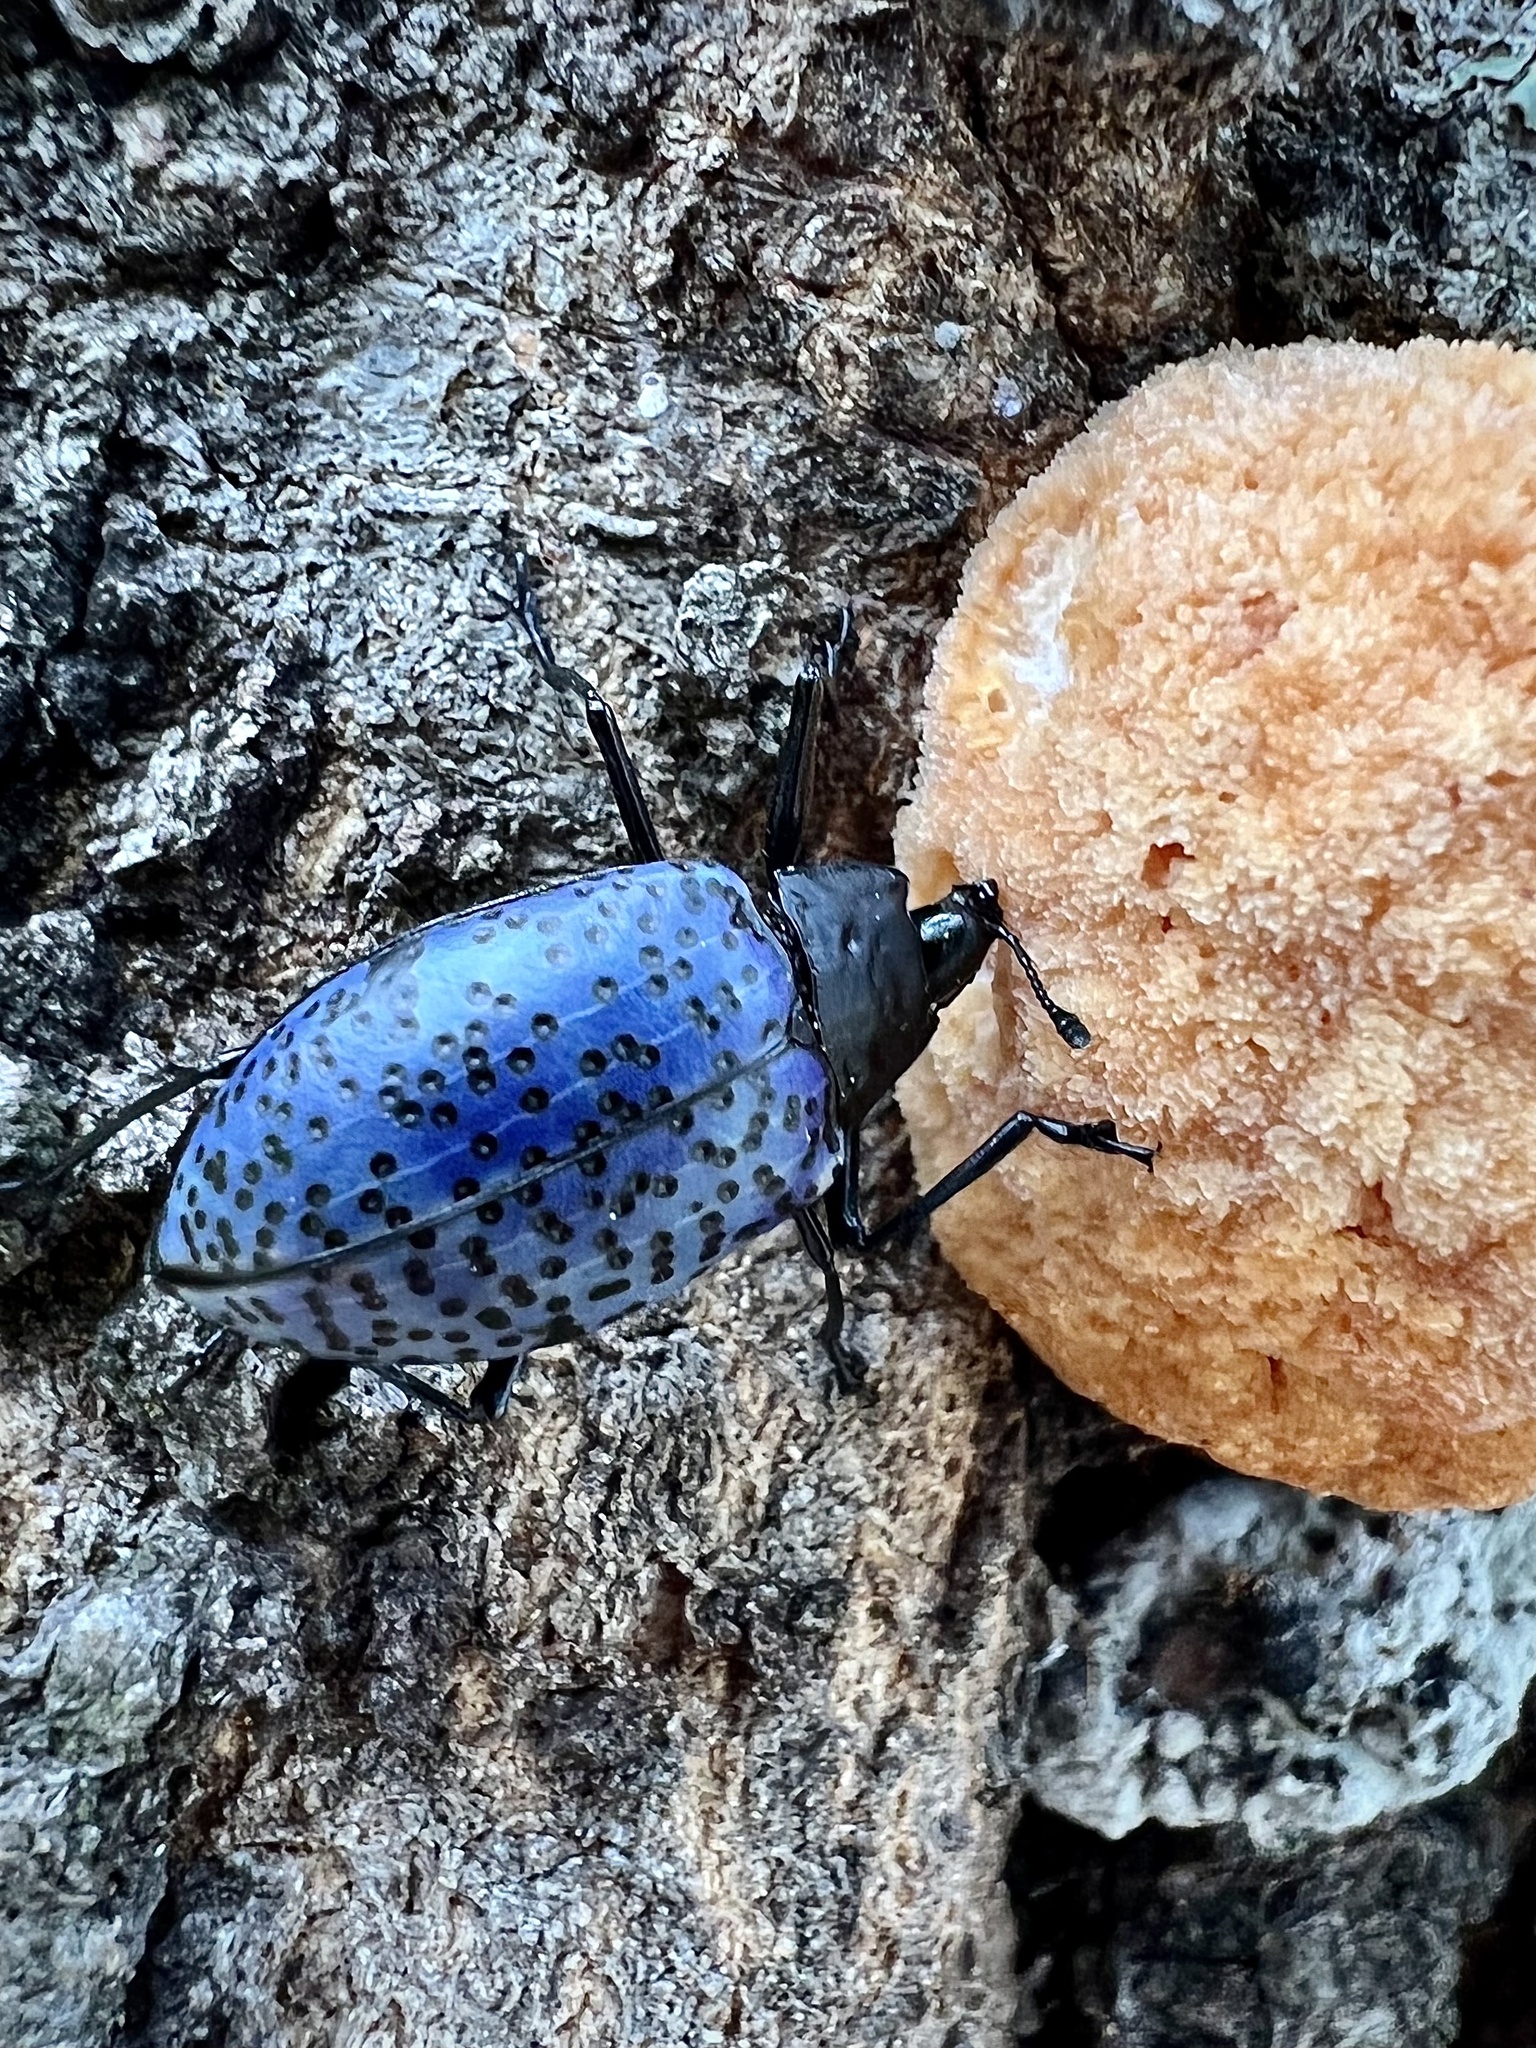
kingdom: Animalia
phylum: Arthropoda
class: Insecta
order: Coleoptera
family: Erotylidae
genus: Gibbifer
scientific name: Gibbifer californicus
